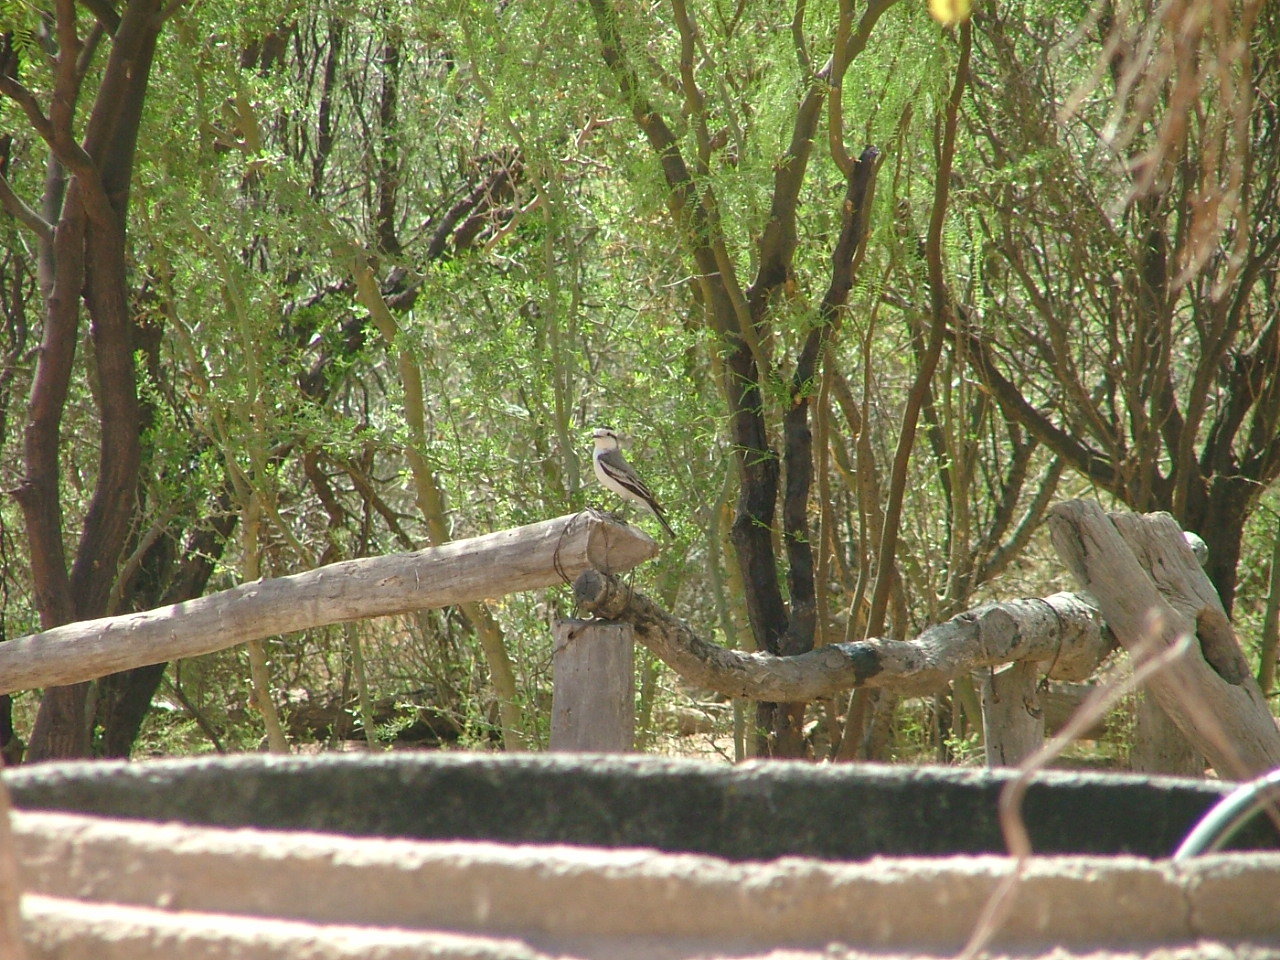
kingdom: Animalia
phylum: Chordata
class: Aves
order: Passeriformes
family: Tyrannidae
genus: Xolmis
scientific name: Xolmis coronatus
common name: Black-crowned monjita
